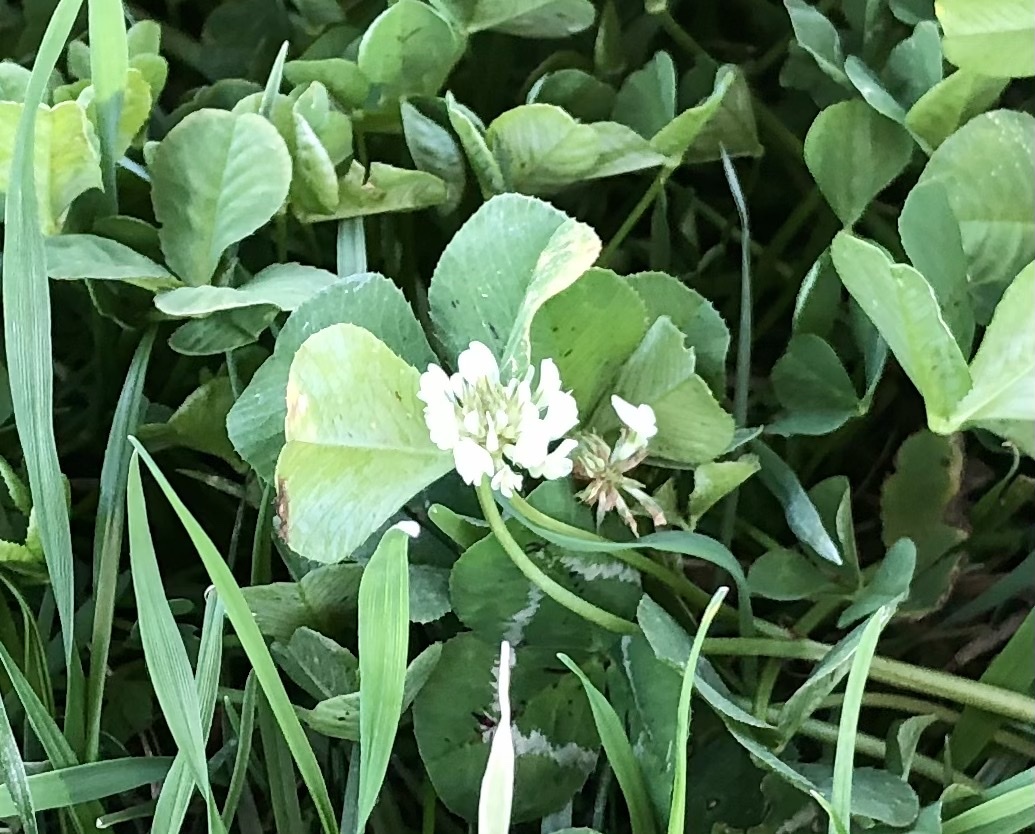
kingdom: Plantae
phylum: Tracheophyta
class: Magnoliopsida
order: Fabales
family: Fabaceae
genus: Trifolium
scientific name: Trifolium repens
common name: White clover
